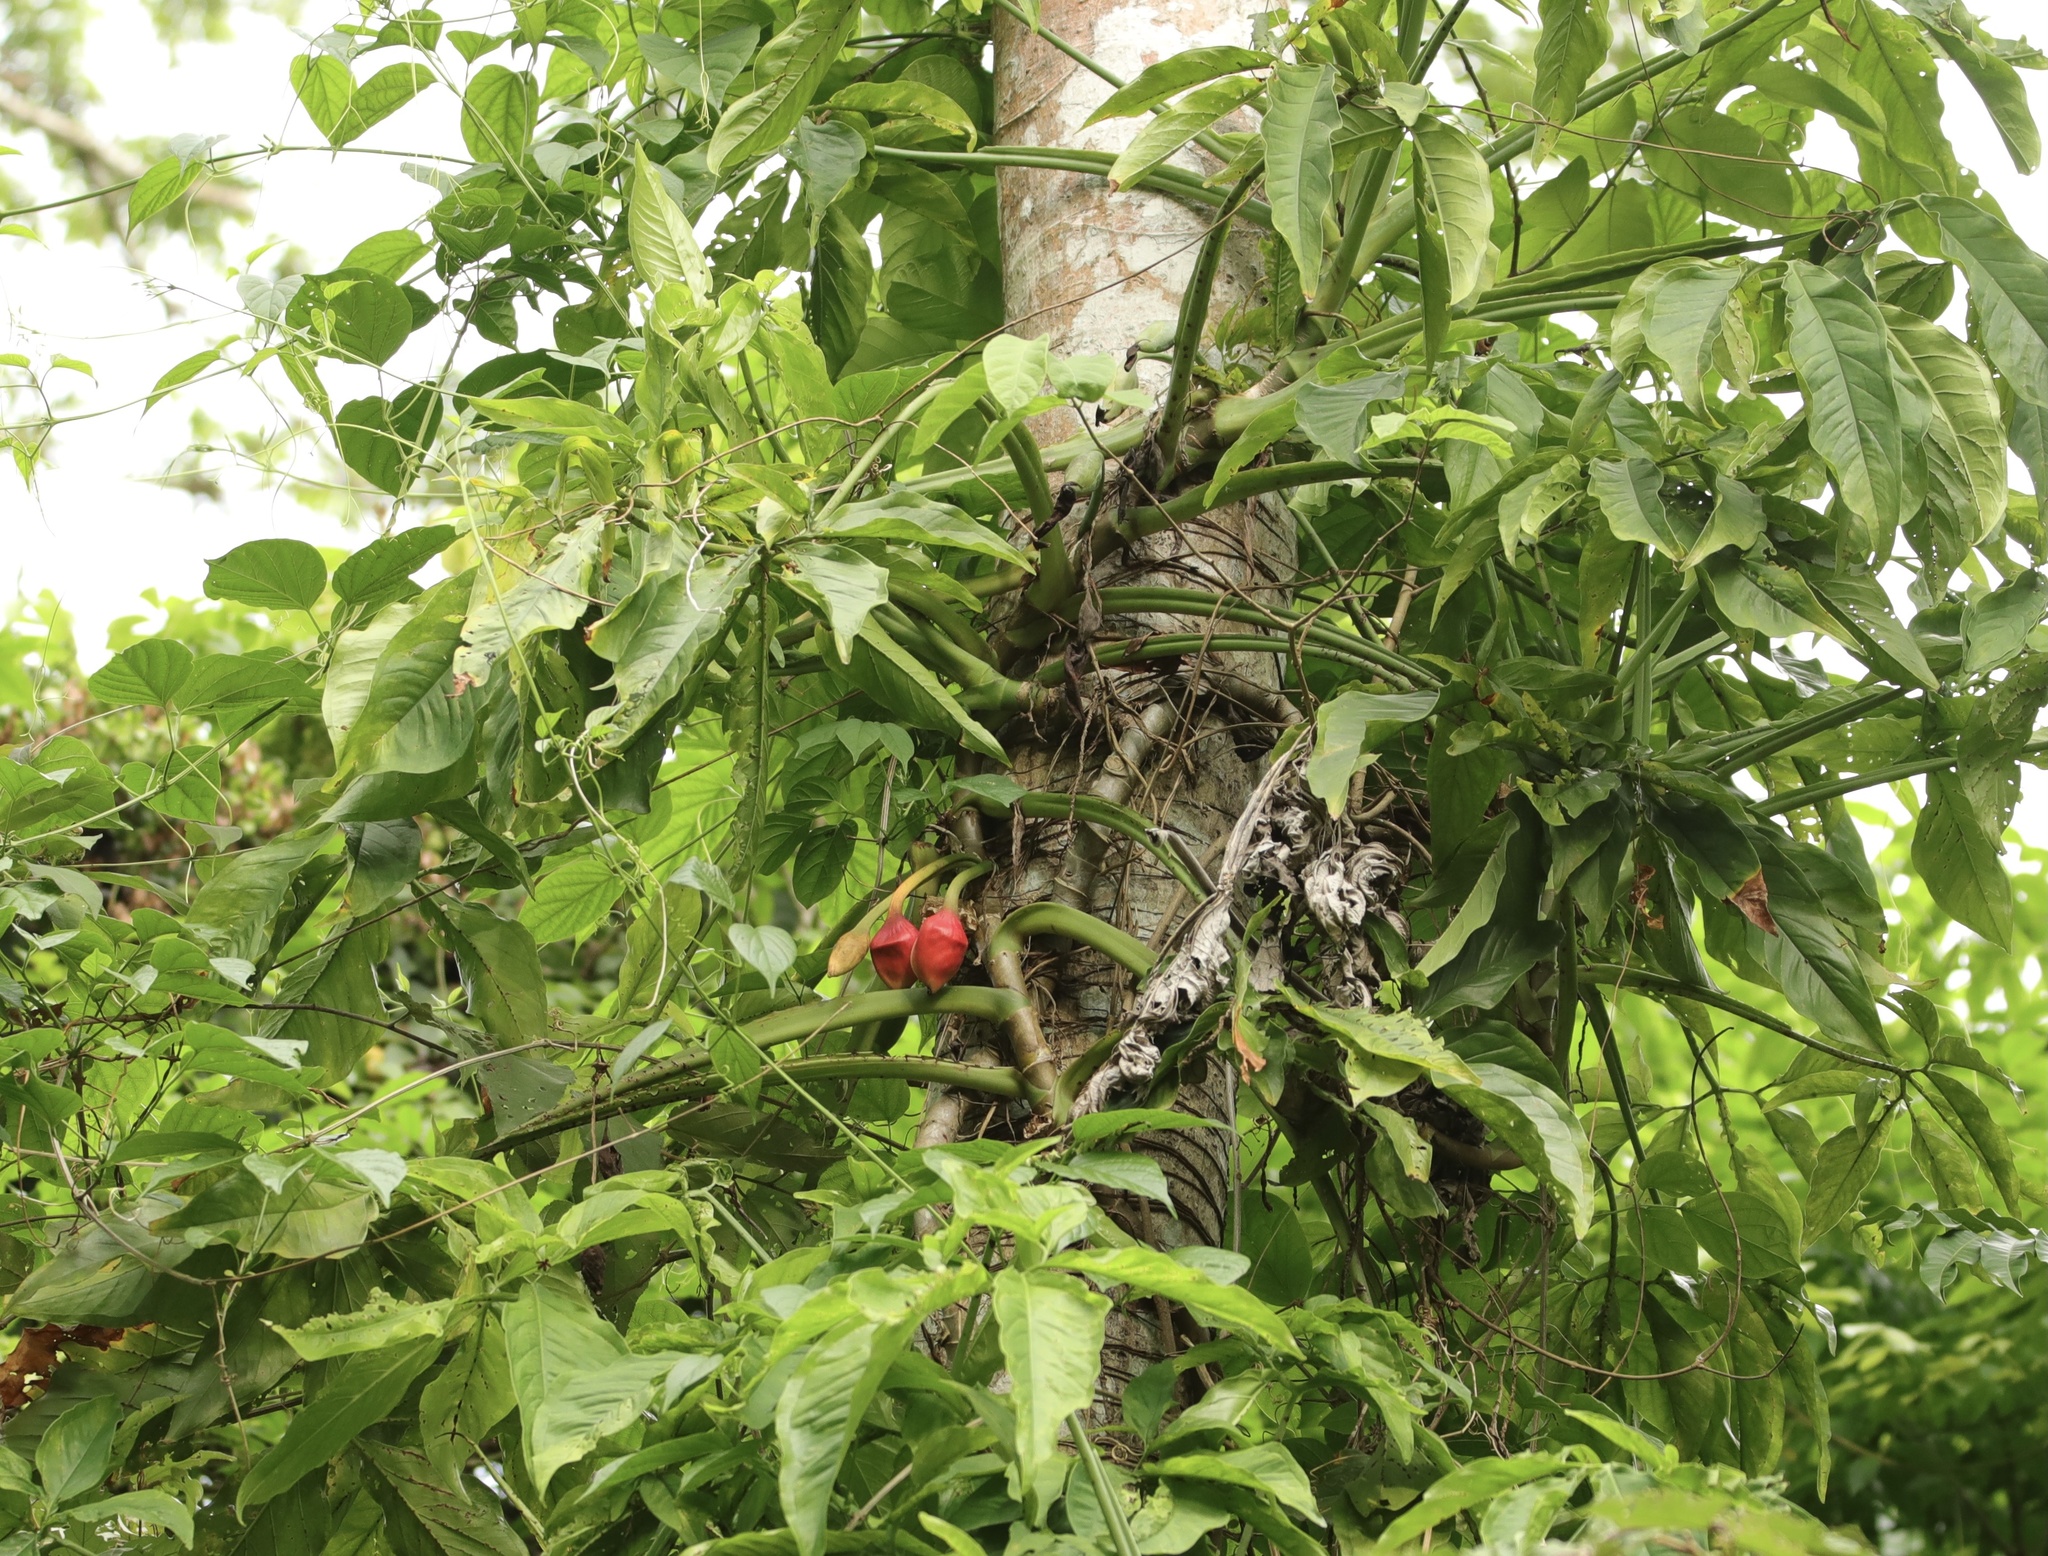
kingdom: Plantae
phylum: Tracheophyta
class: Liliopsida
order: Alismatales
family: Araceae
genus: Syngonium
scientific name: Syngonium podophyllum
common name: American evergreen
